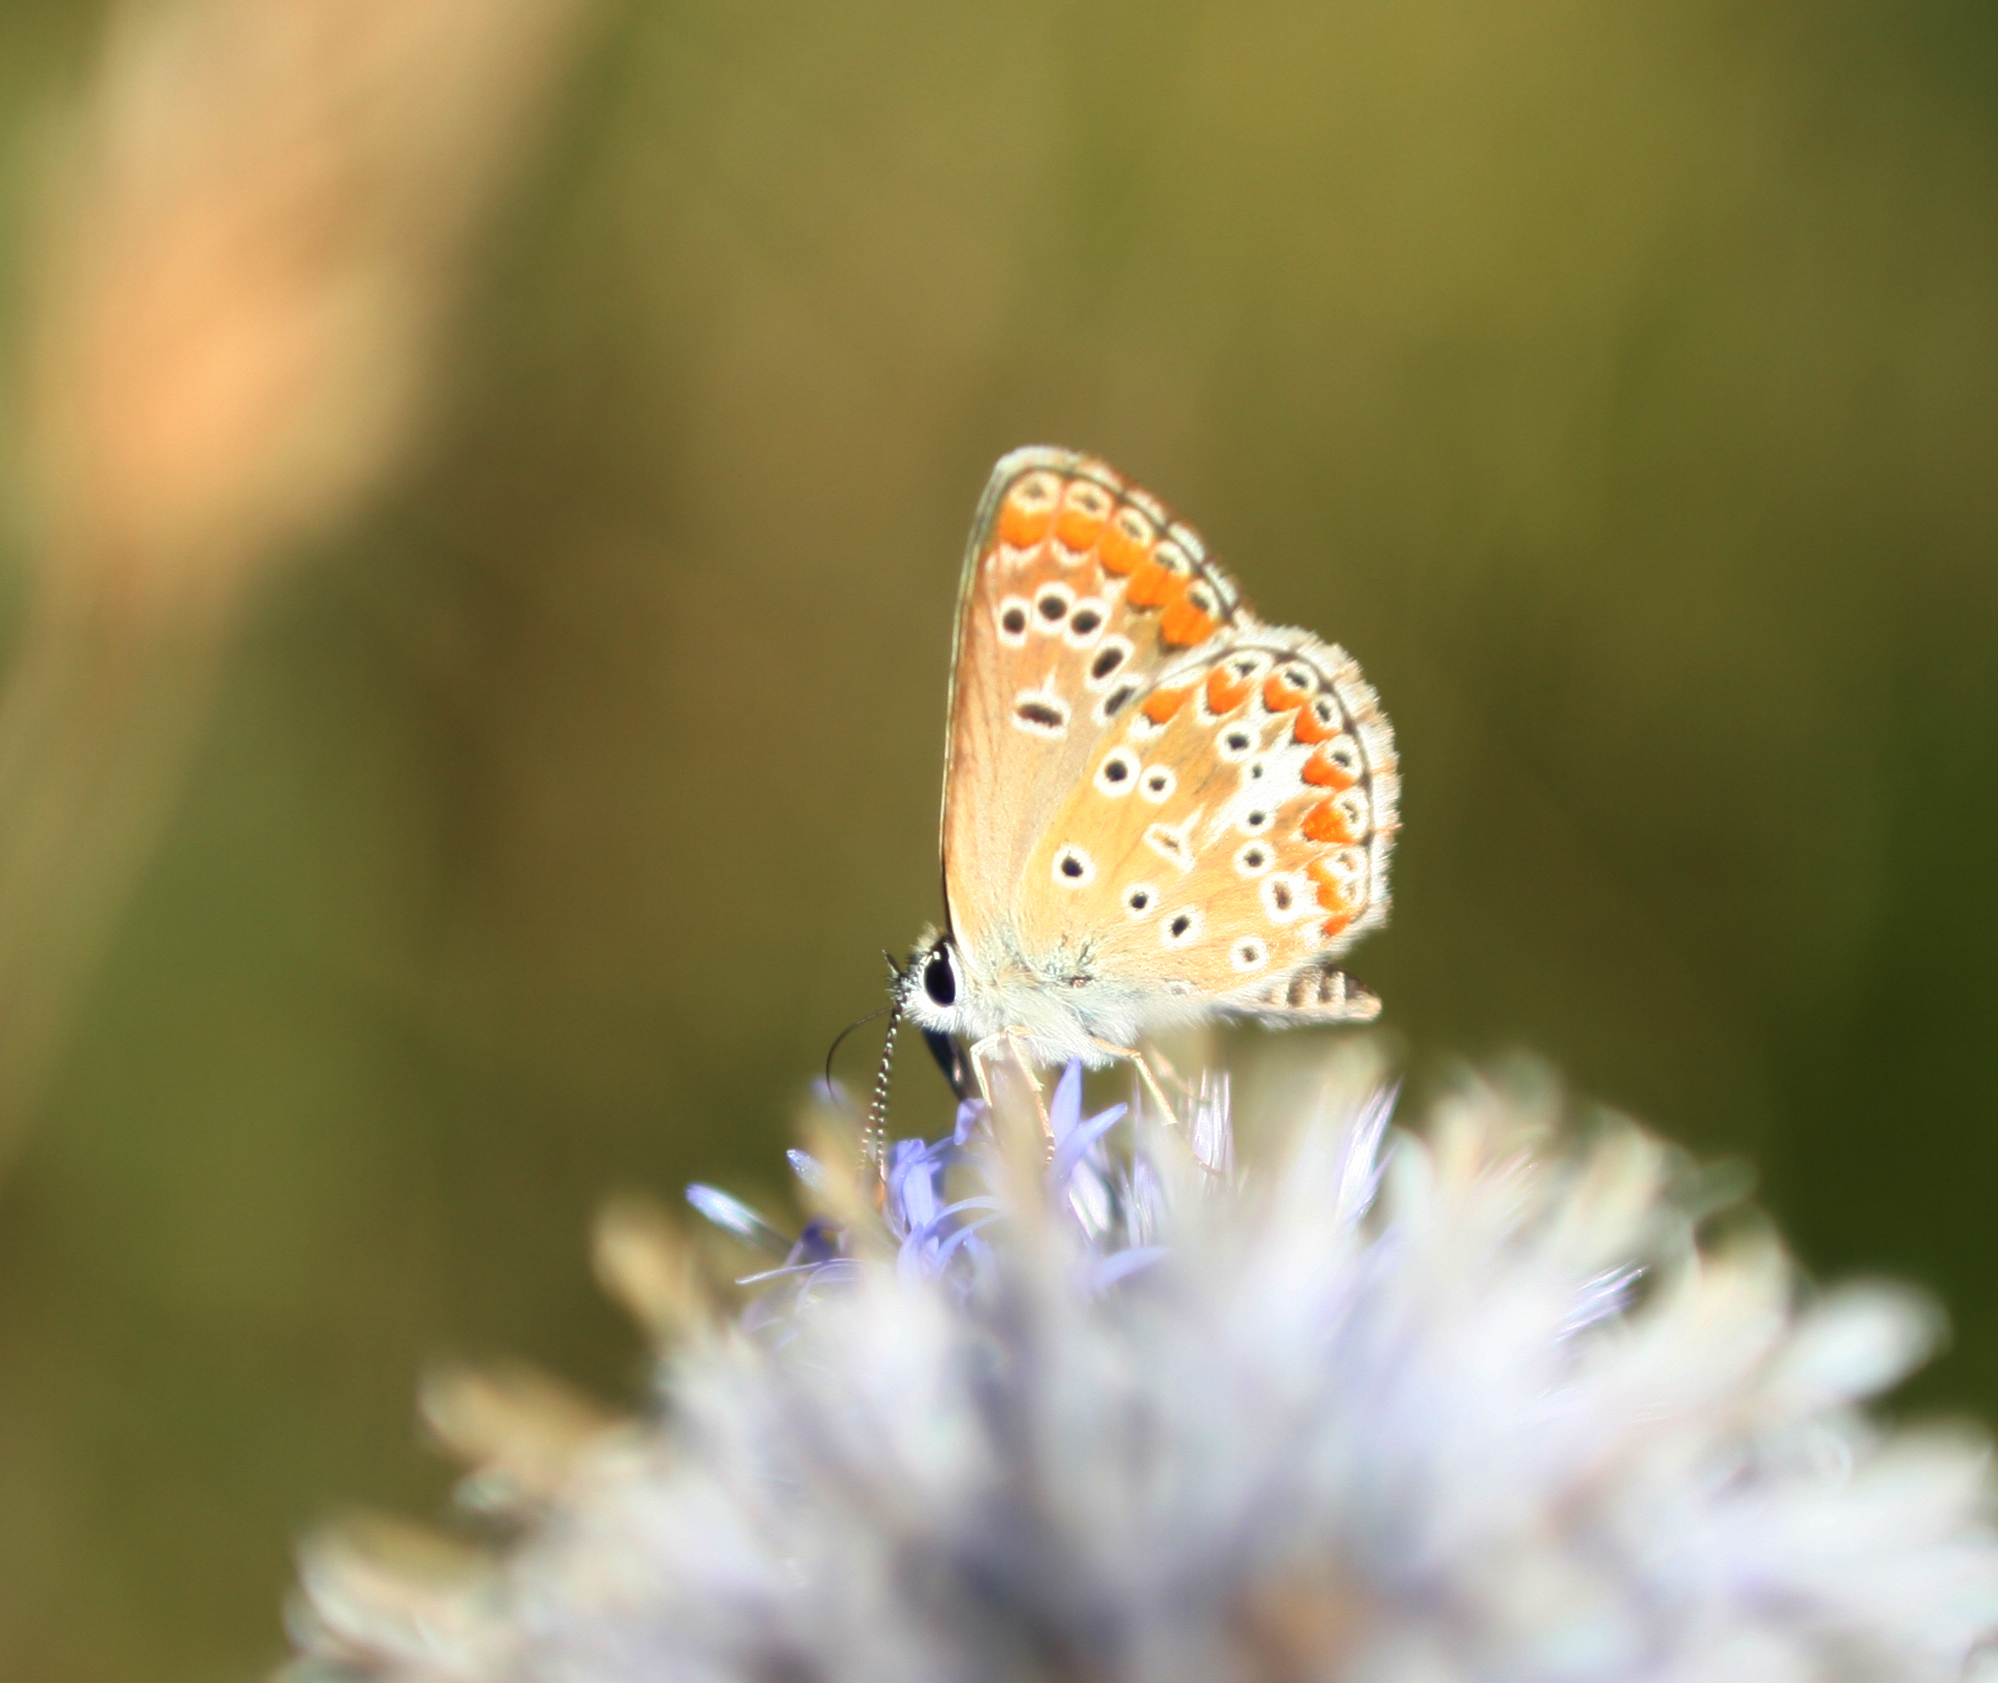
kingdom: Animalia
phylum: Arthropoda
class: Insecta
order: Lepidoptera
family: Lycaenidae
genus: Aricia
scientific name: Aricia agestis
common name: Brown argus
